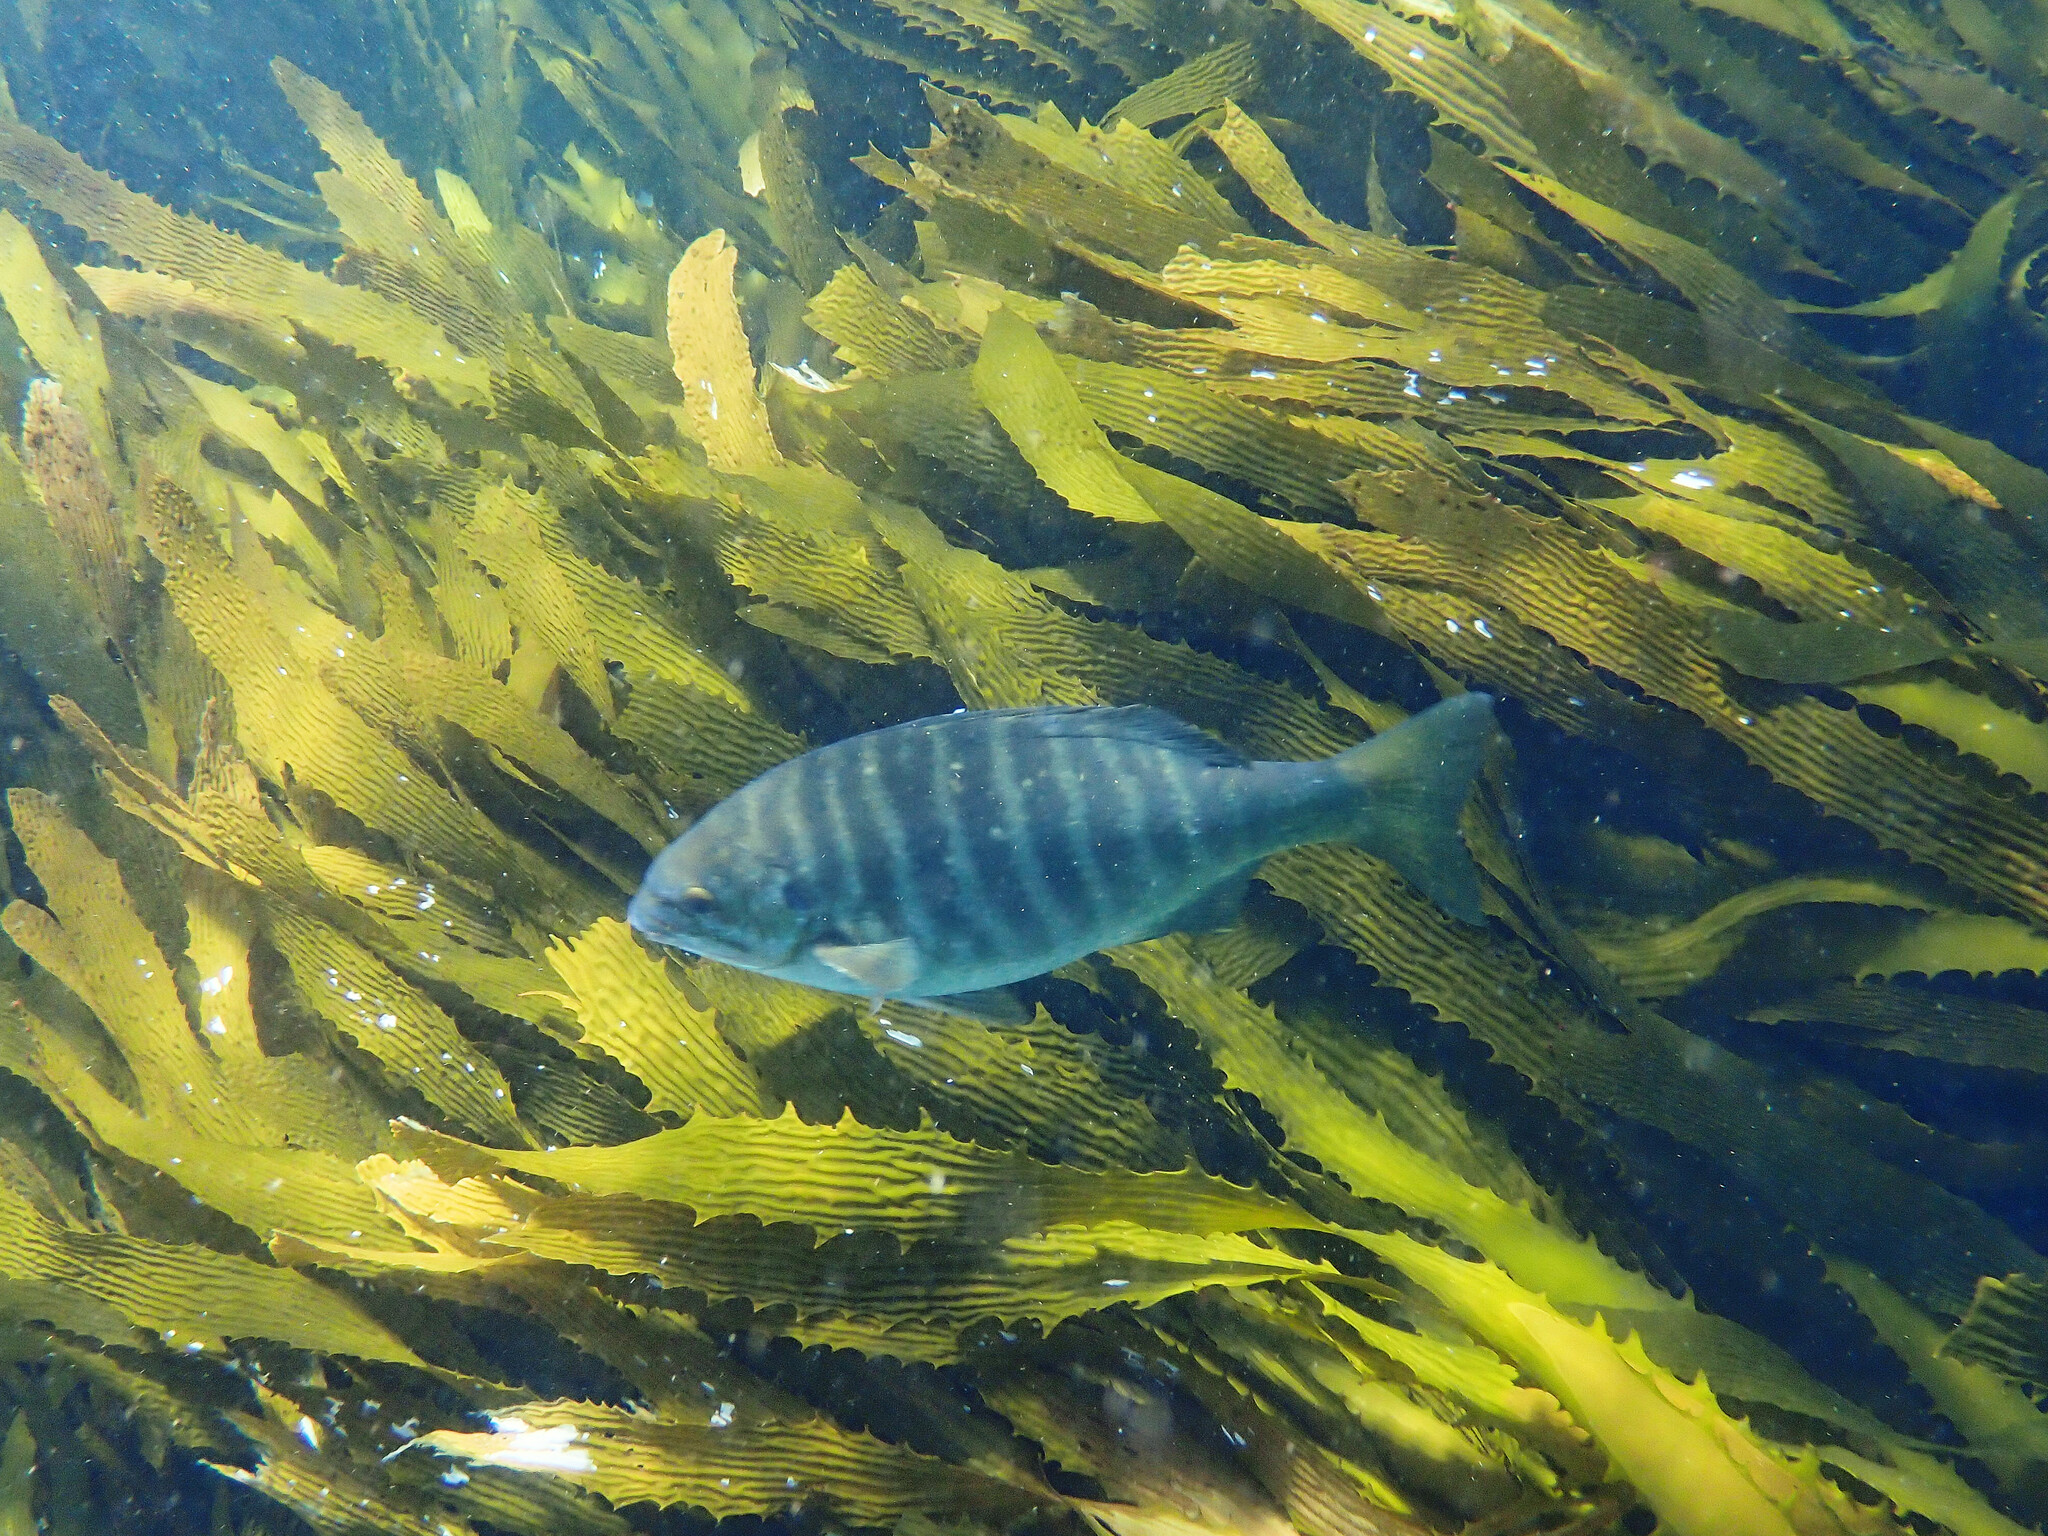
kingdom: Animalia
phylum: Chordata
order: Perciformes
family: Kyphosidae
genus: Kyphosus
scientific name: Kyphosus azureus
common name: Perch
